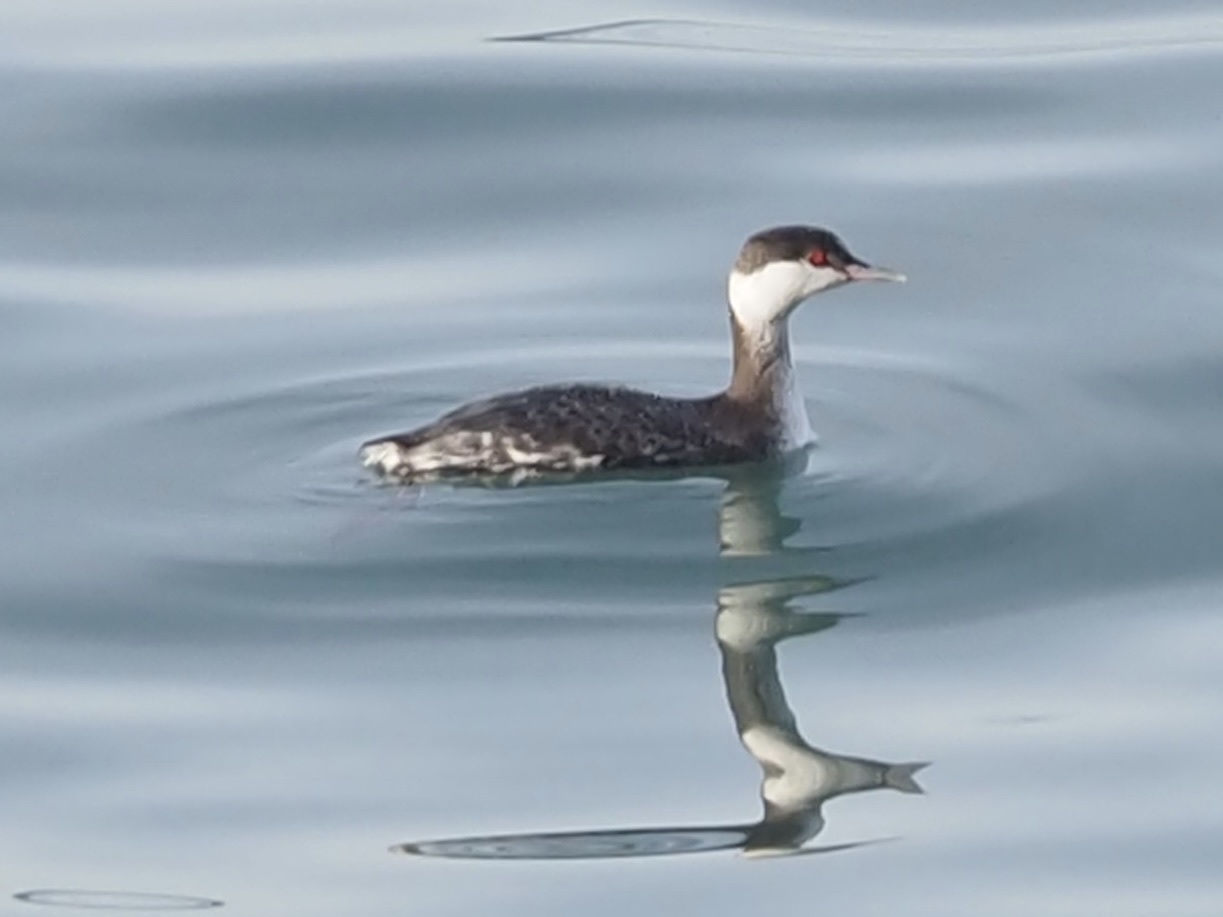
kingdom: Animalia
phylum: Chordata
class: Aves
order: Podicipediformes
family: Podicipedidae
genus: Podiceps
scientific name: Podiceps auritus
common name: Horned grebe
